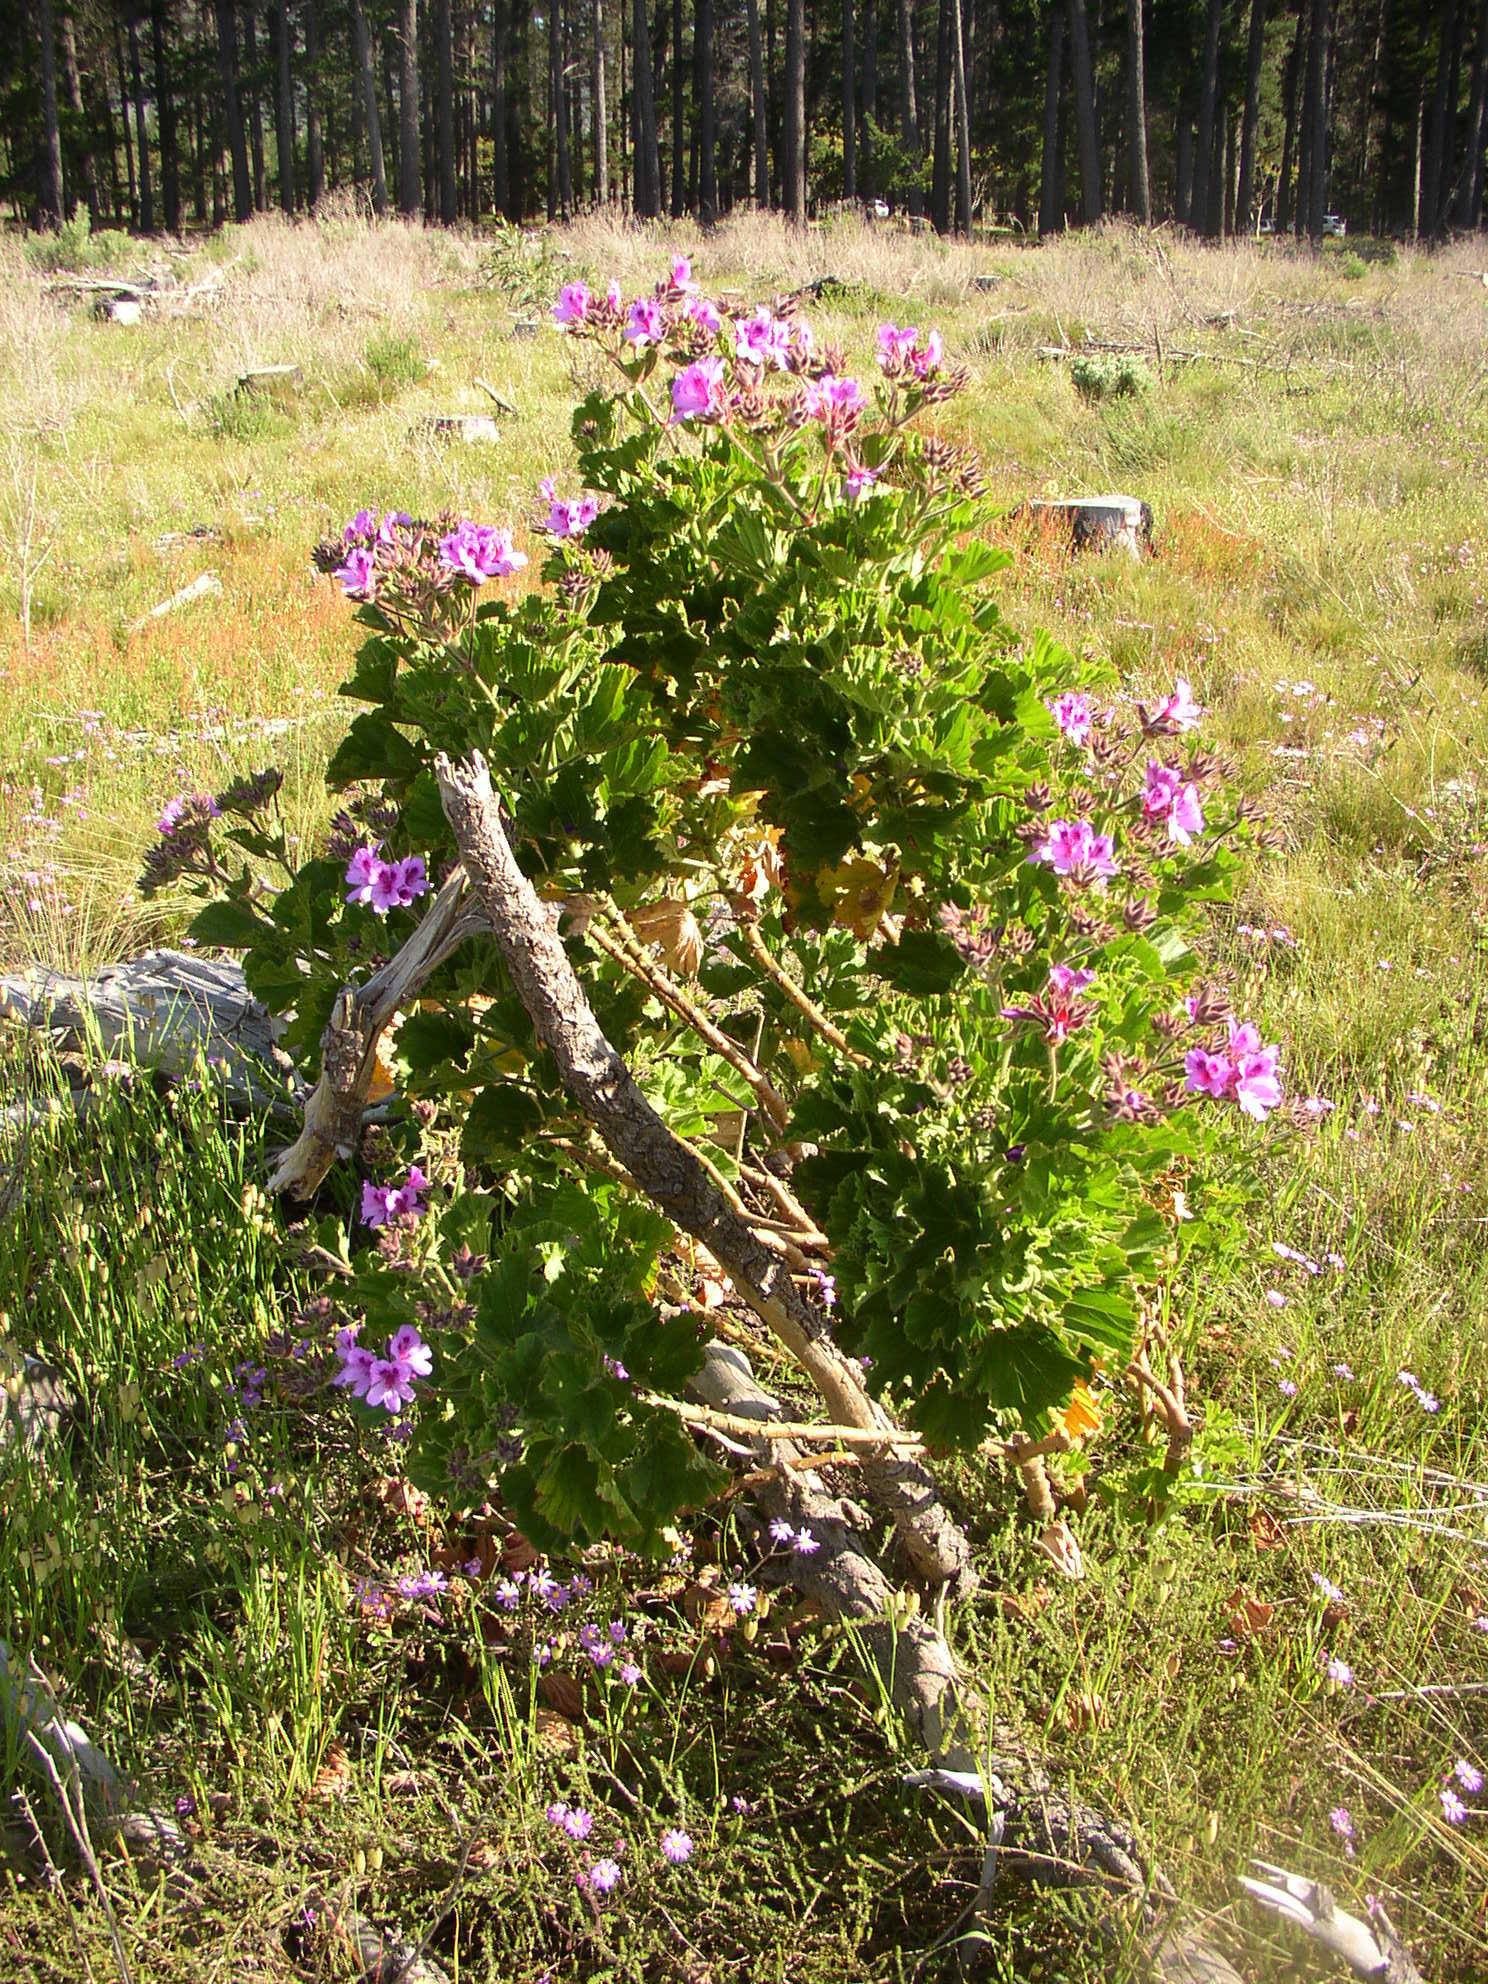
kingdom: Plantae
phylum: Tracheophyta
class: Magnoliopsida
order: Geraniales
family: Geraniaceae
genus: Pelargonium
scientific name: Pelargonium cucullatum
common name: Tree pelargonium
